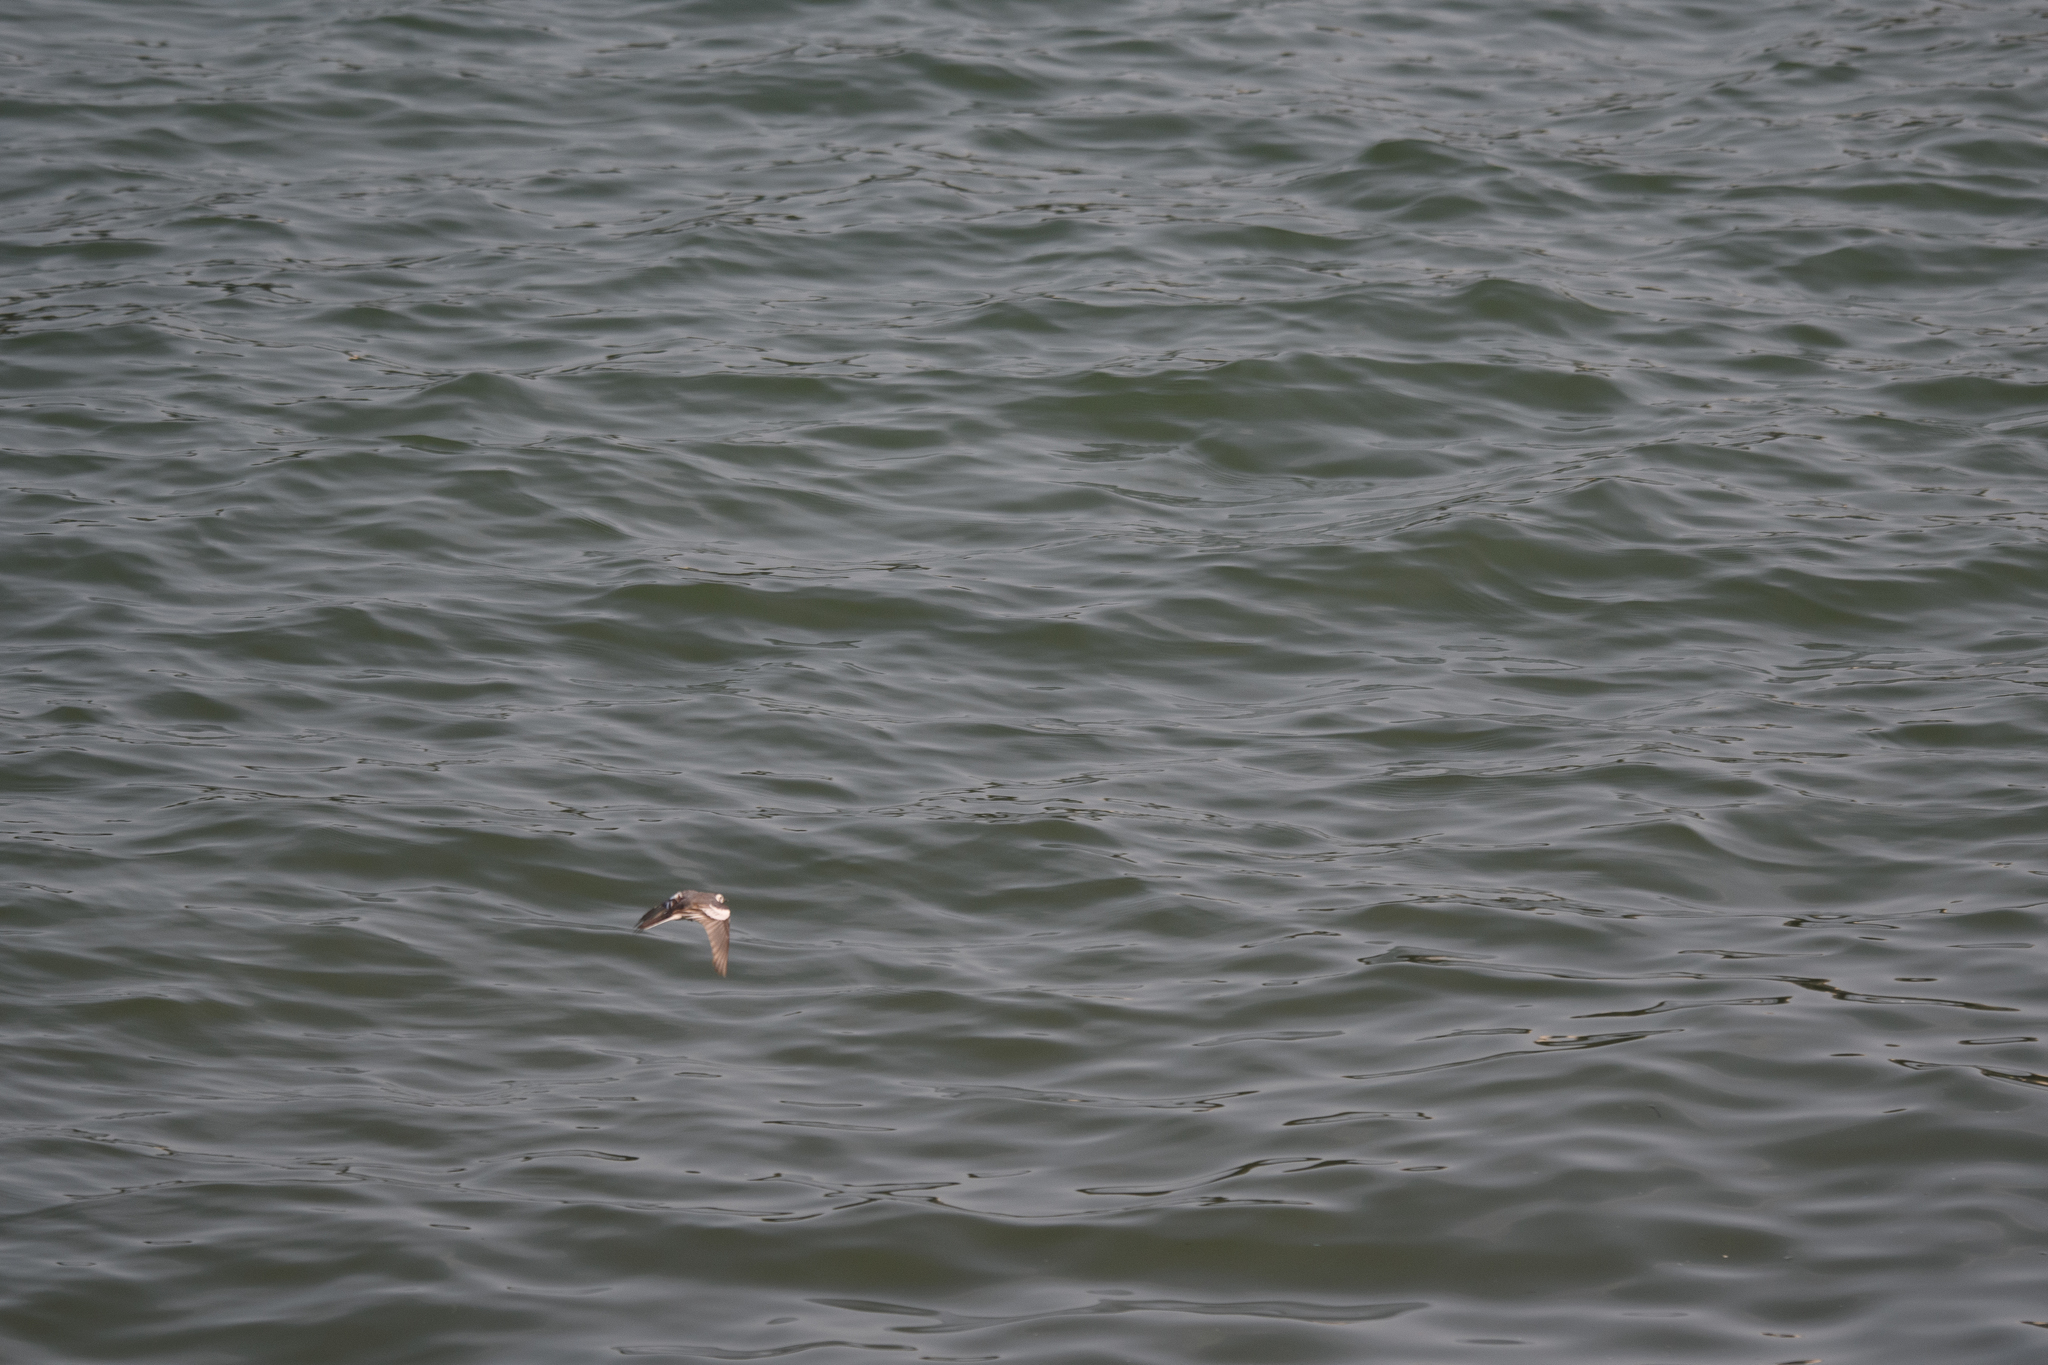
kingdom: Animalia
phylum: Chordata
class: Aves
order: Passeriformes
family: Motacillidae
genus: Motacilla
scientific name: Motacilla alba
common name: White wagtail
